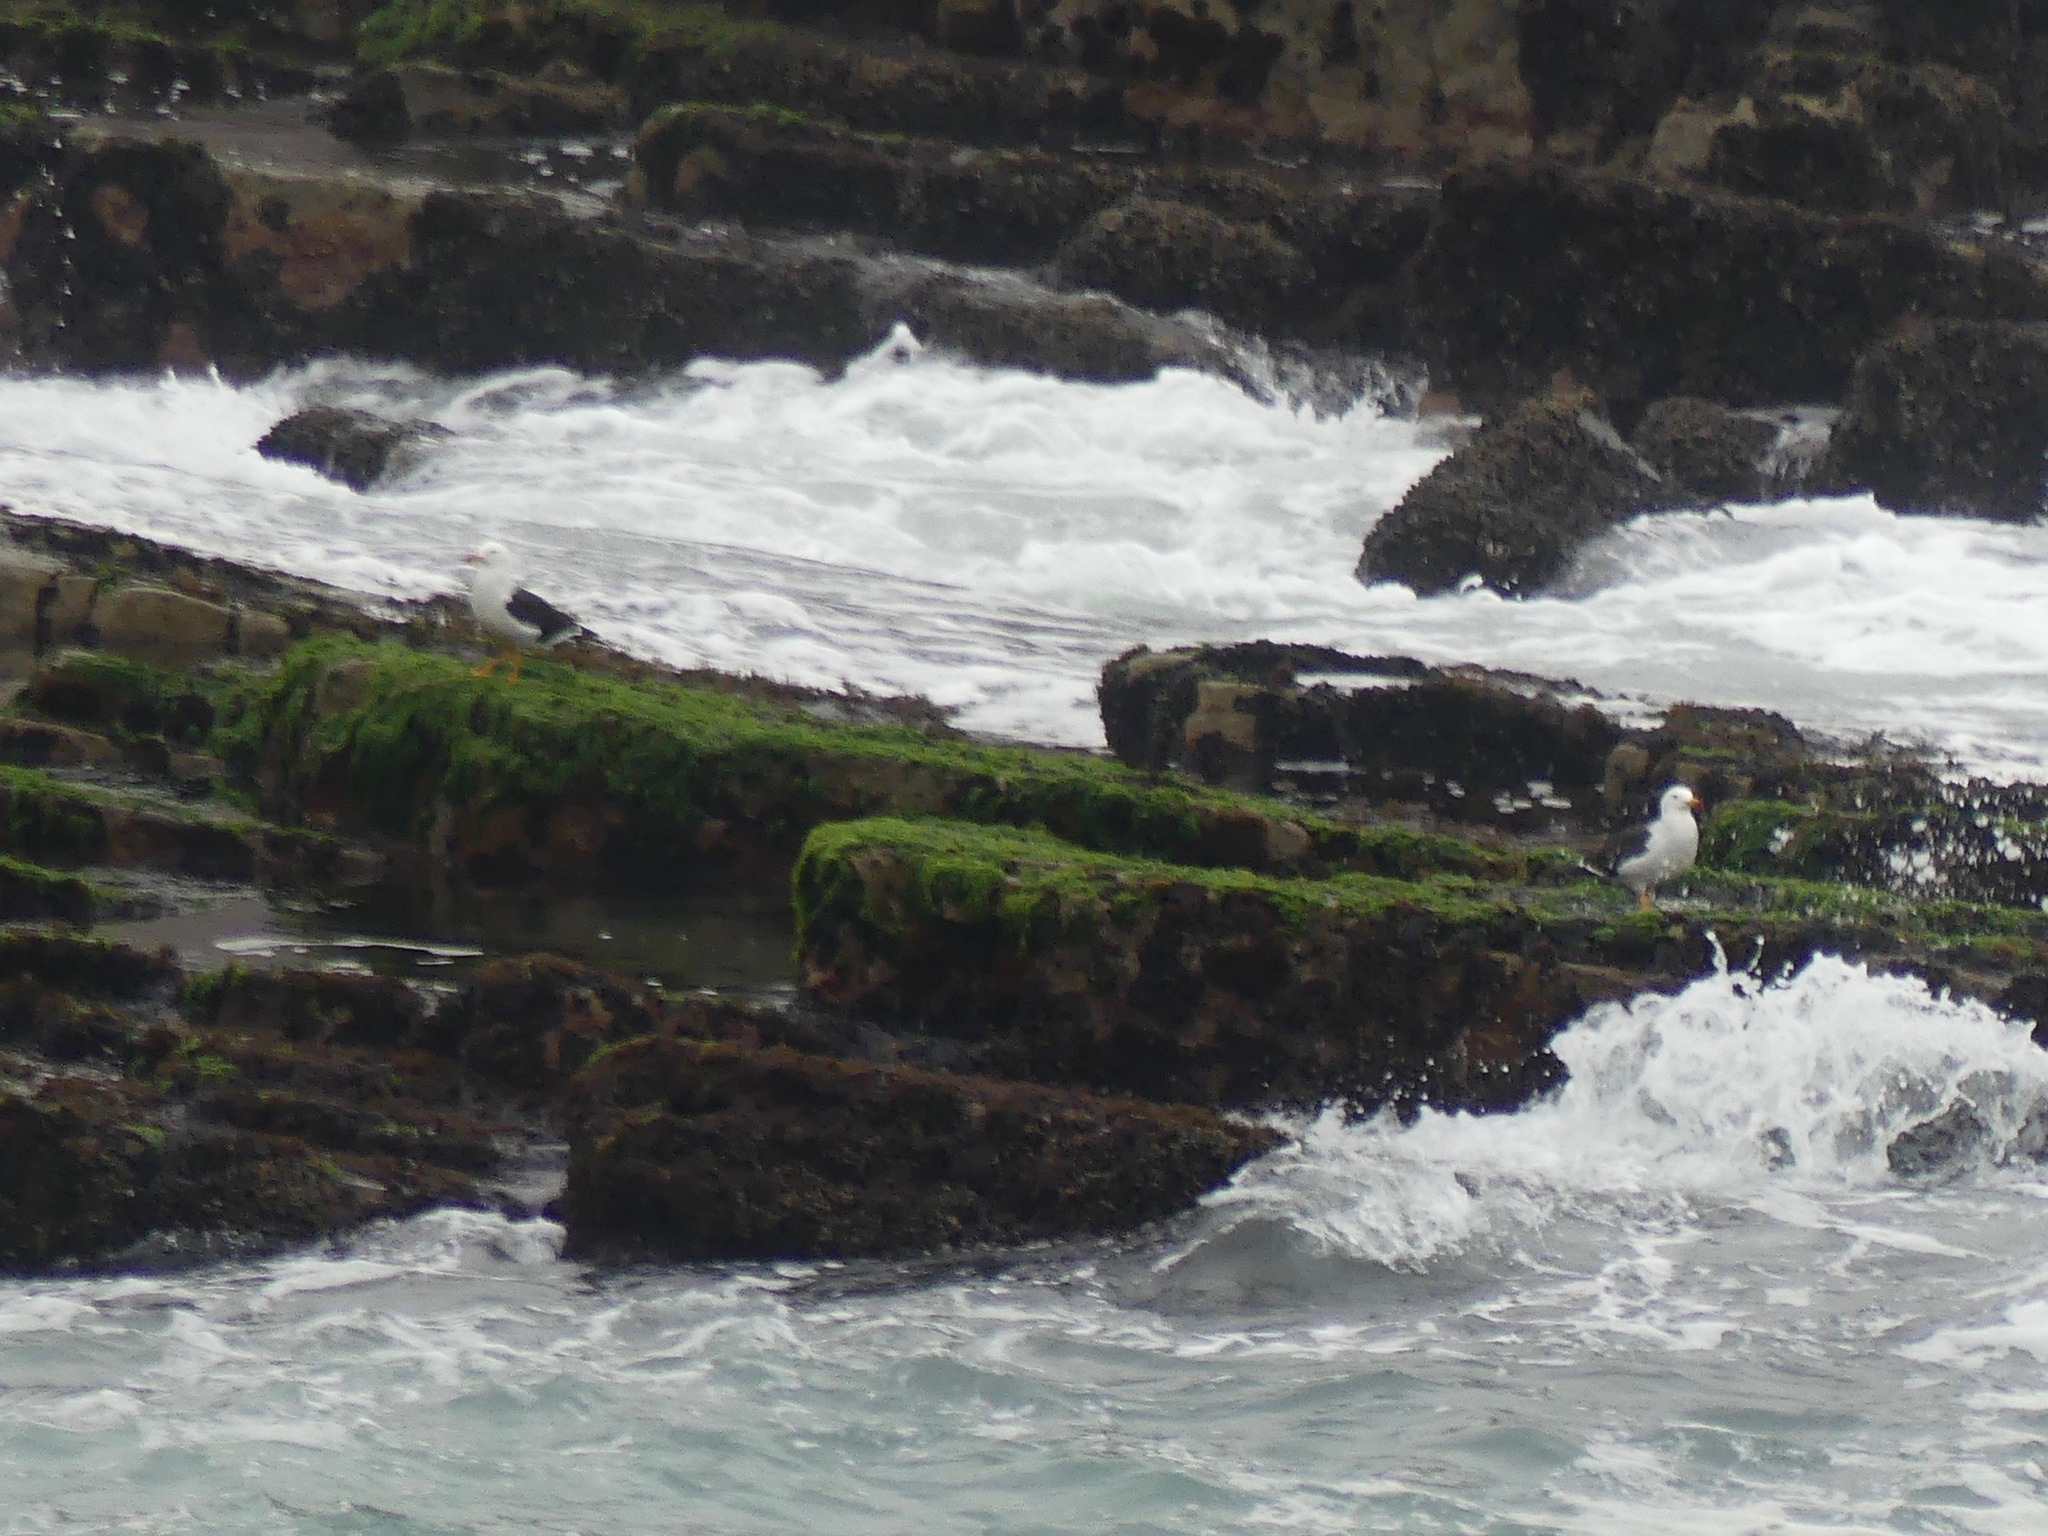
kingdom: Animalia
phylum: Chordata
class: Aves
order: Charadriiformes
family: Laridae
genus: Larus
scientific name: Larus dominicanus
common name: Kelp gull
